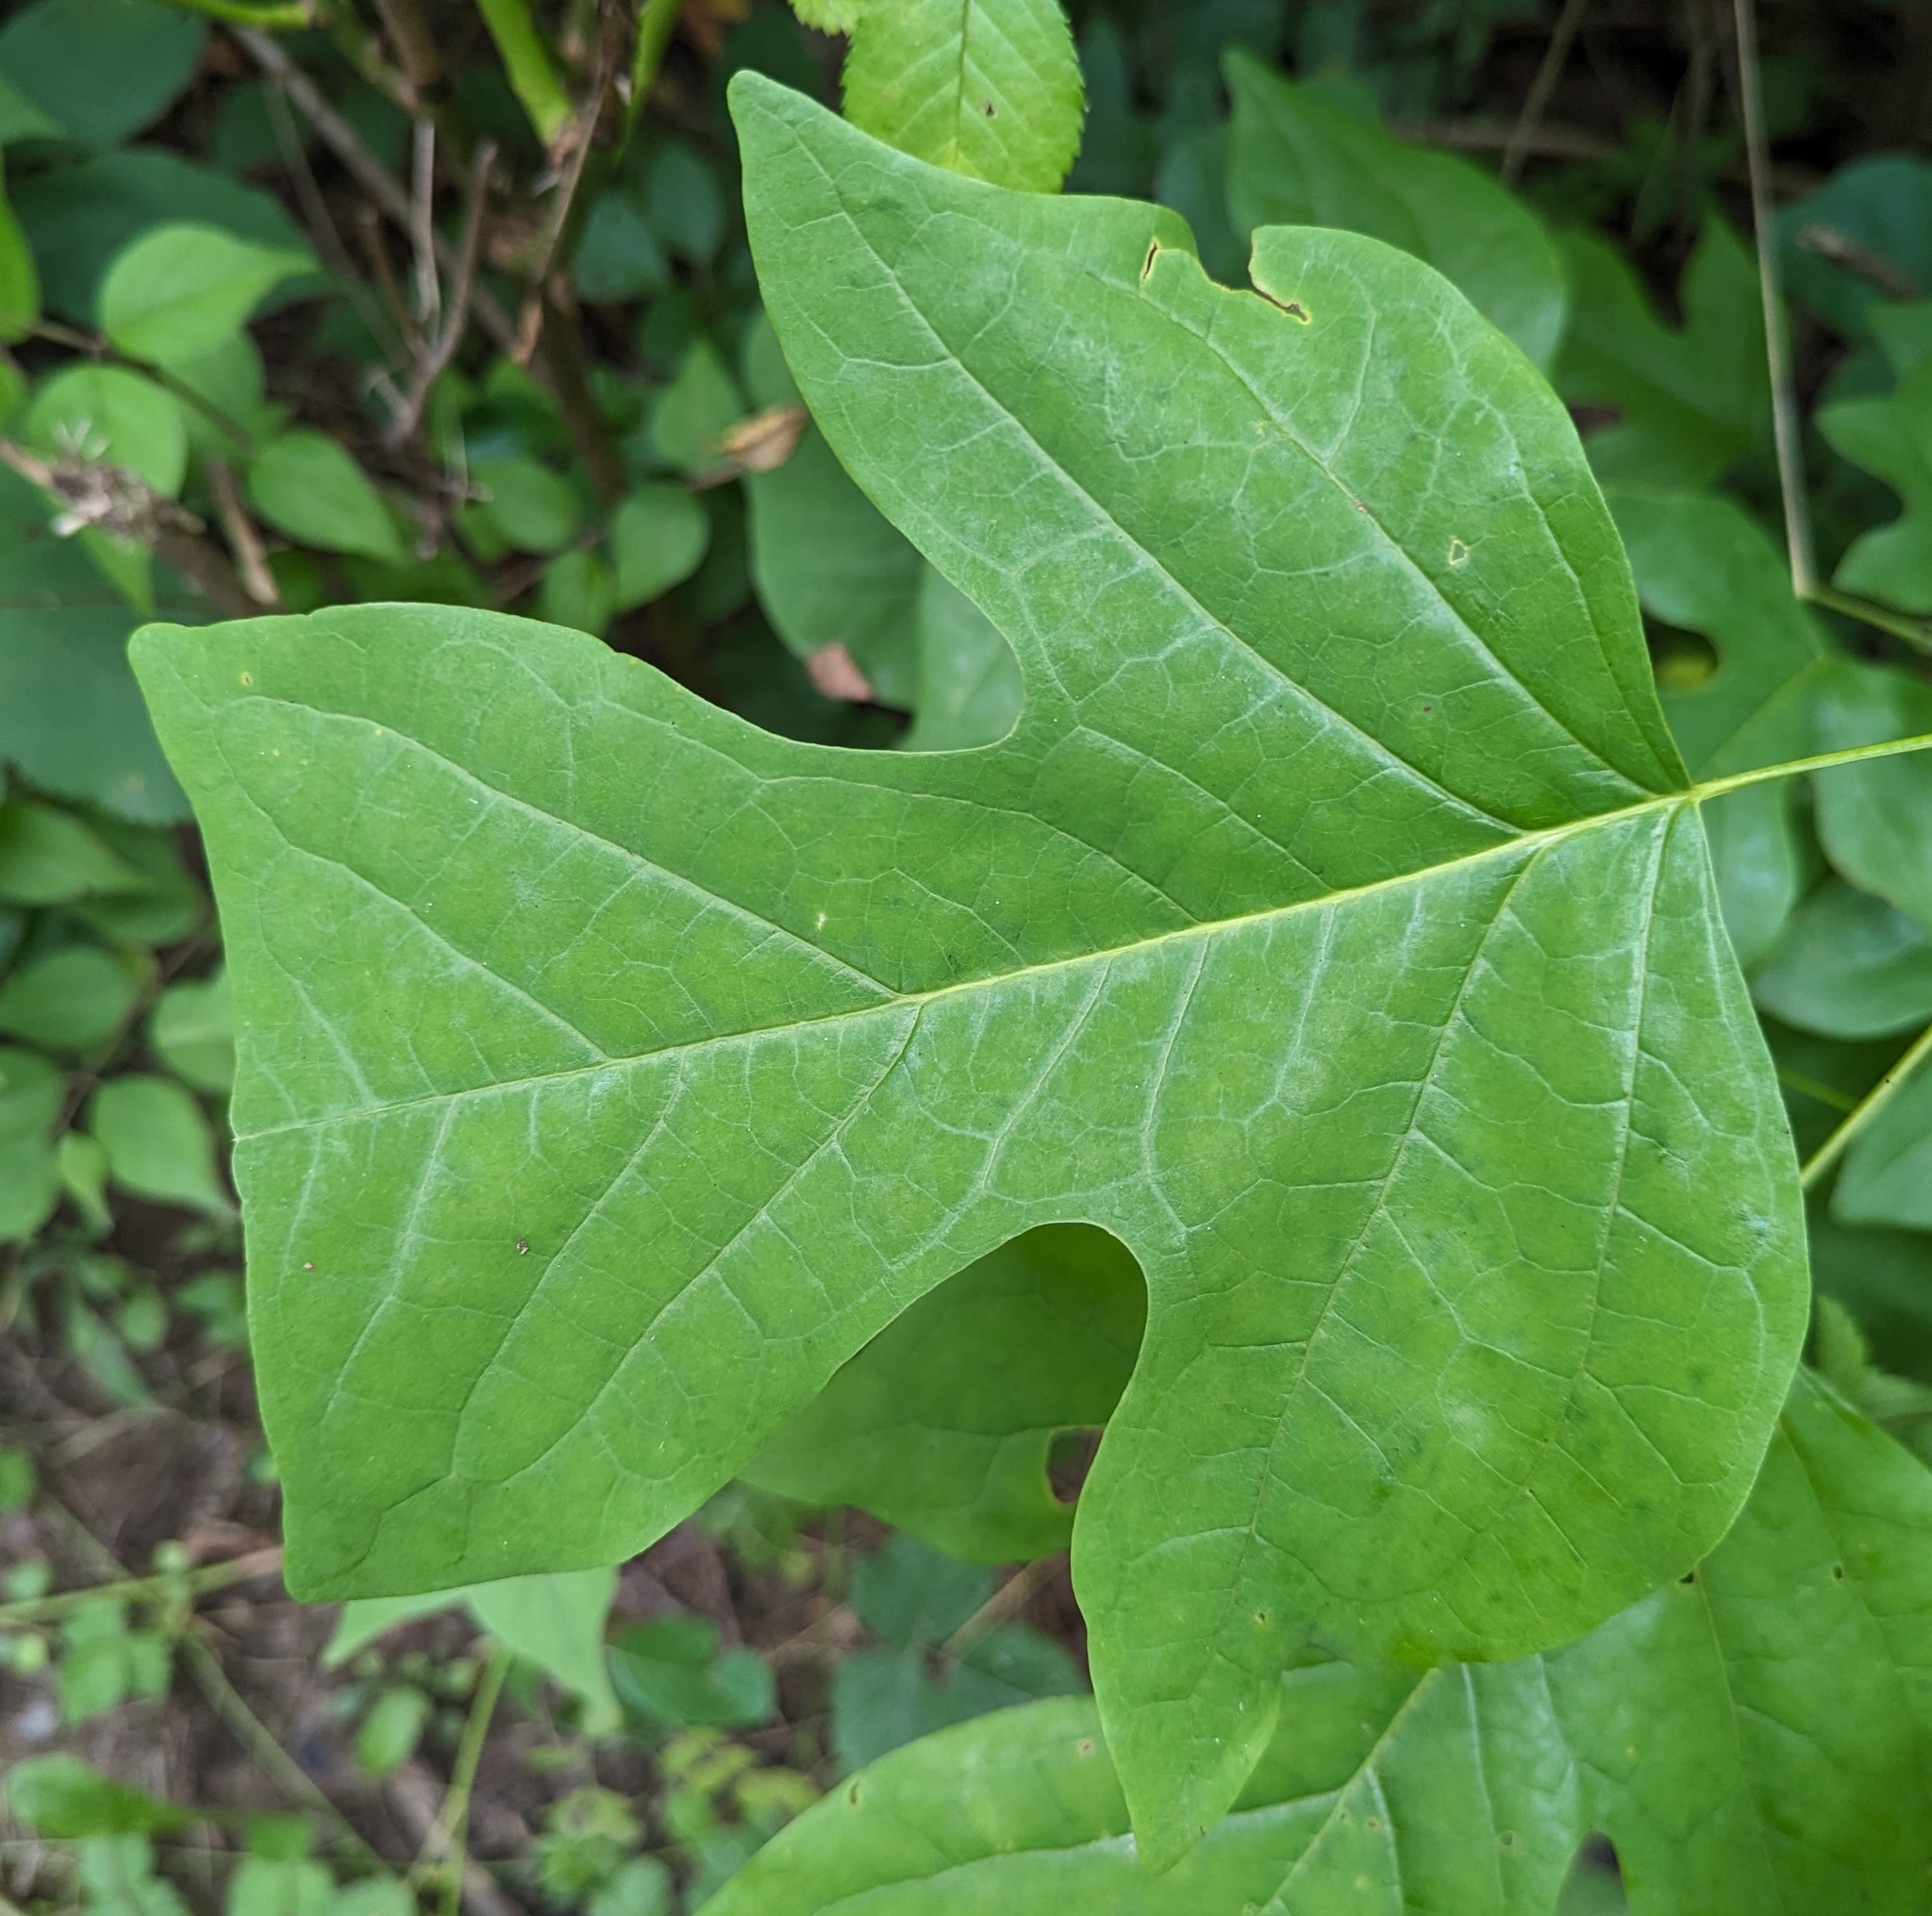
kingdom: Plantae
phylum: Tracheophyta
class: Magnoliopsida
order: Magnoliales
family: Magnoliaceae
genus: Liriodendron
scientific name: Liriodendron tulipifera
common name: Tulip tree
